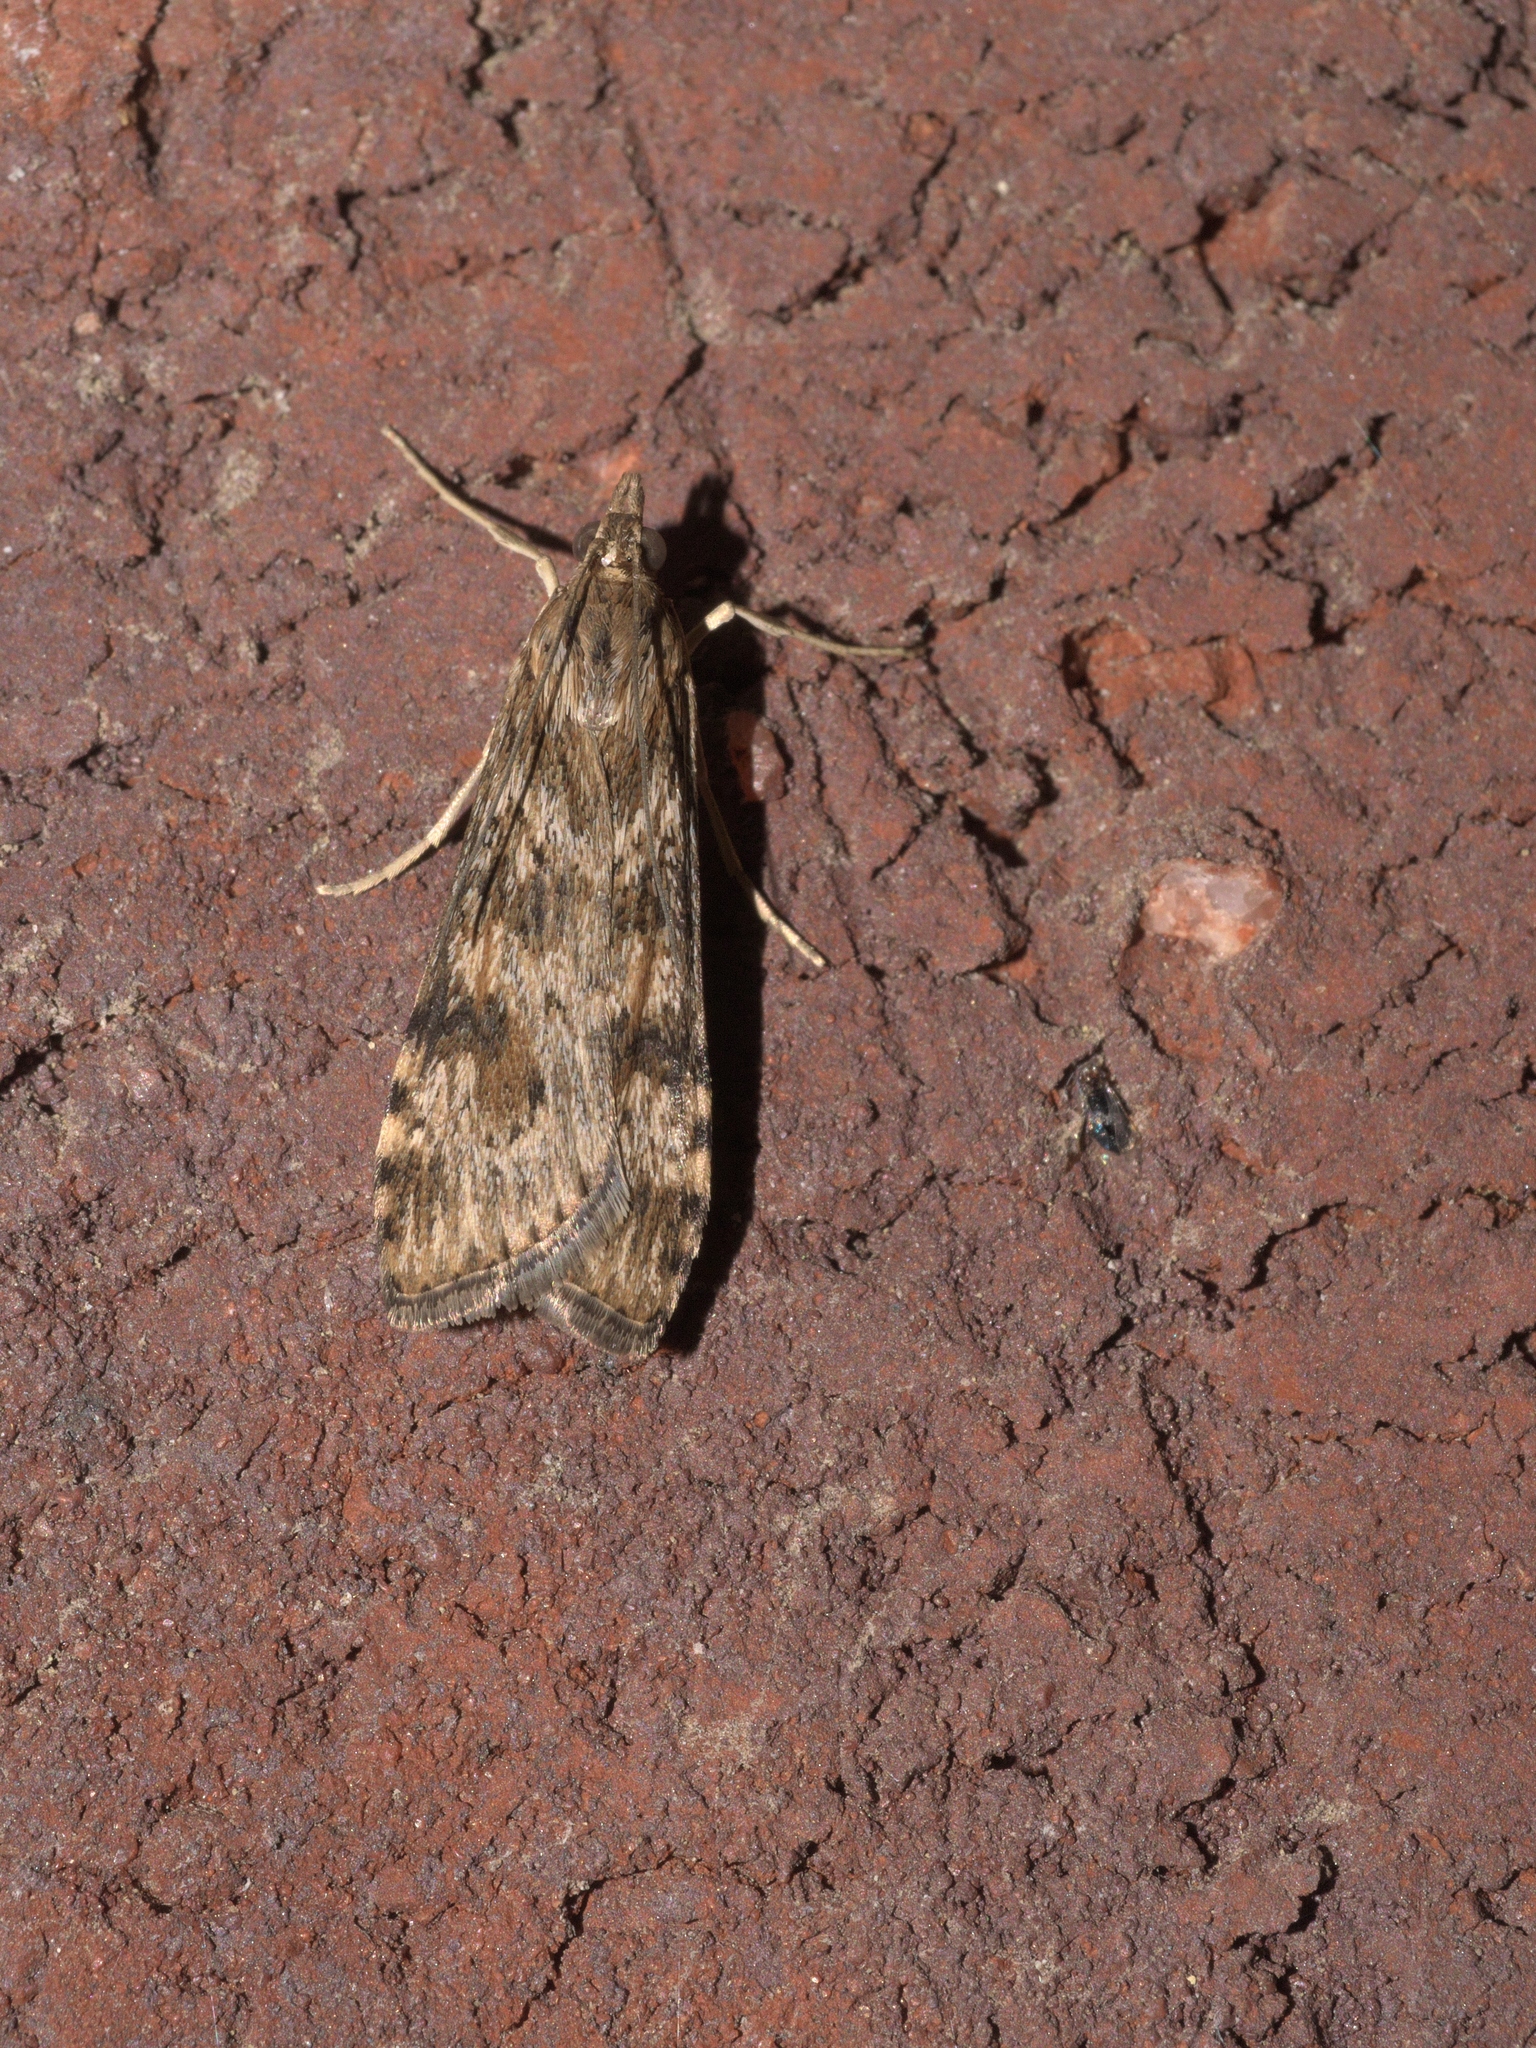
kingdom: Animalia
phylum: Arthropoda
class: Insecta
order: Lepidoptera
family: Crambidae
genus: Nomophila
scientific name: Nomophila nearctica
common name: American rush veneer
